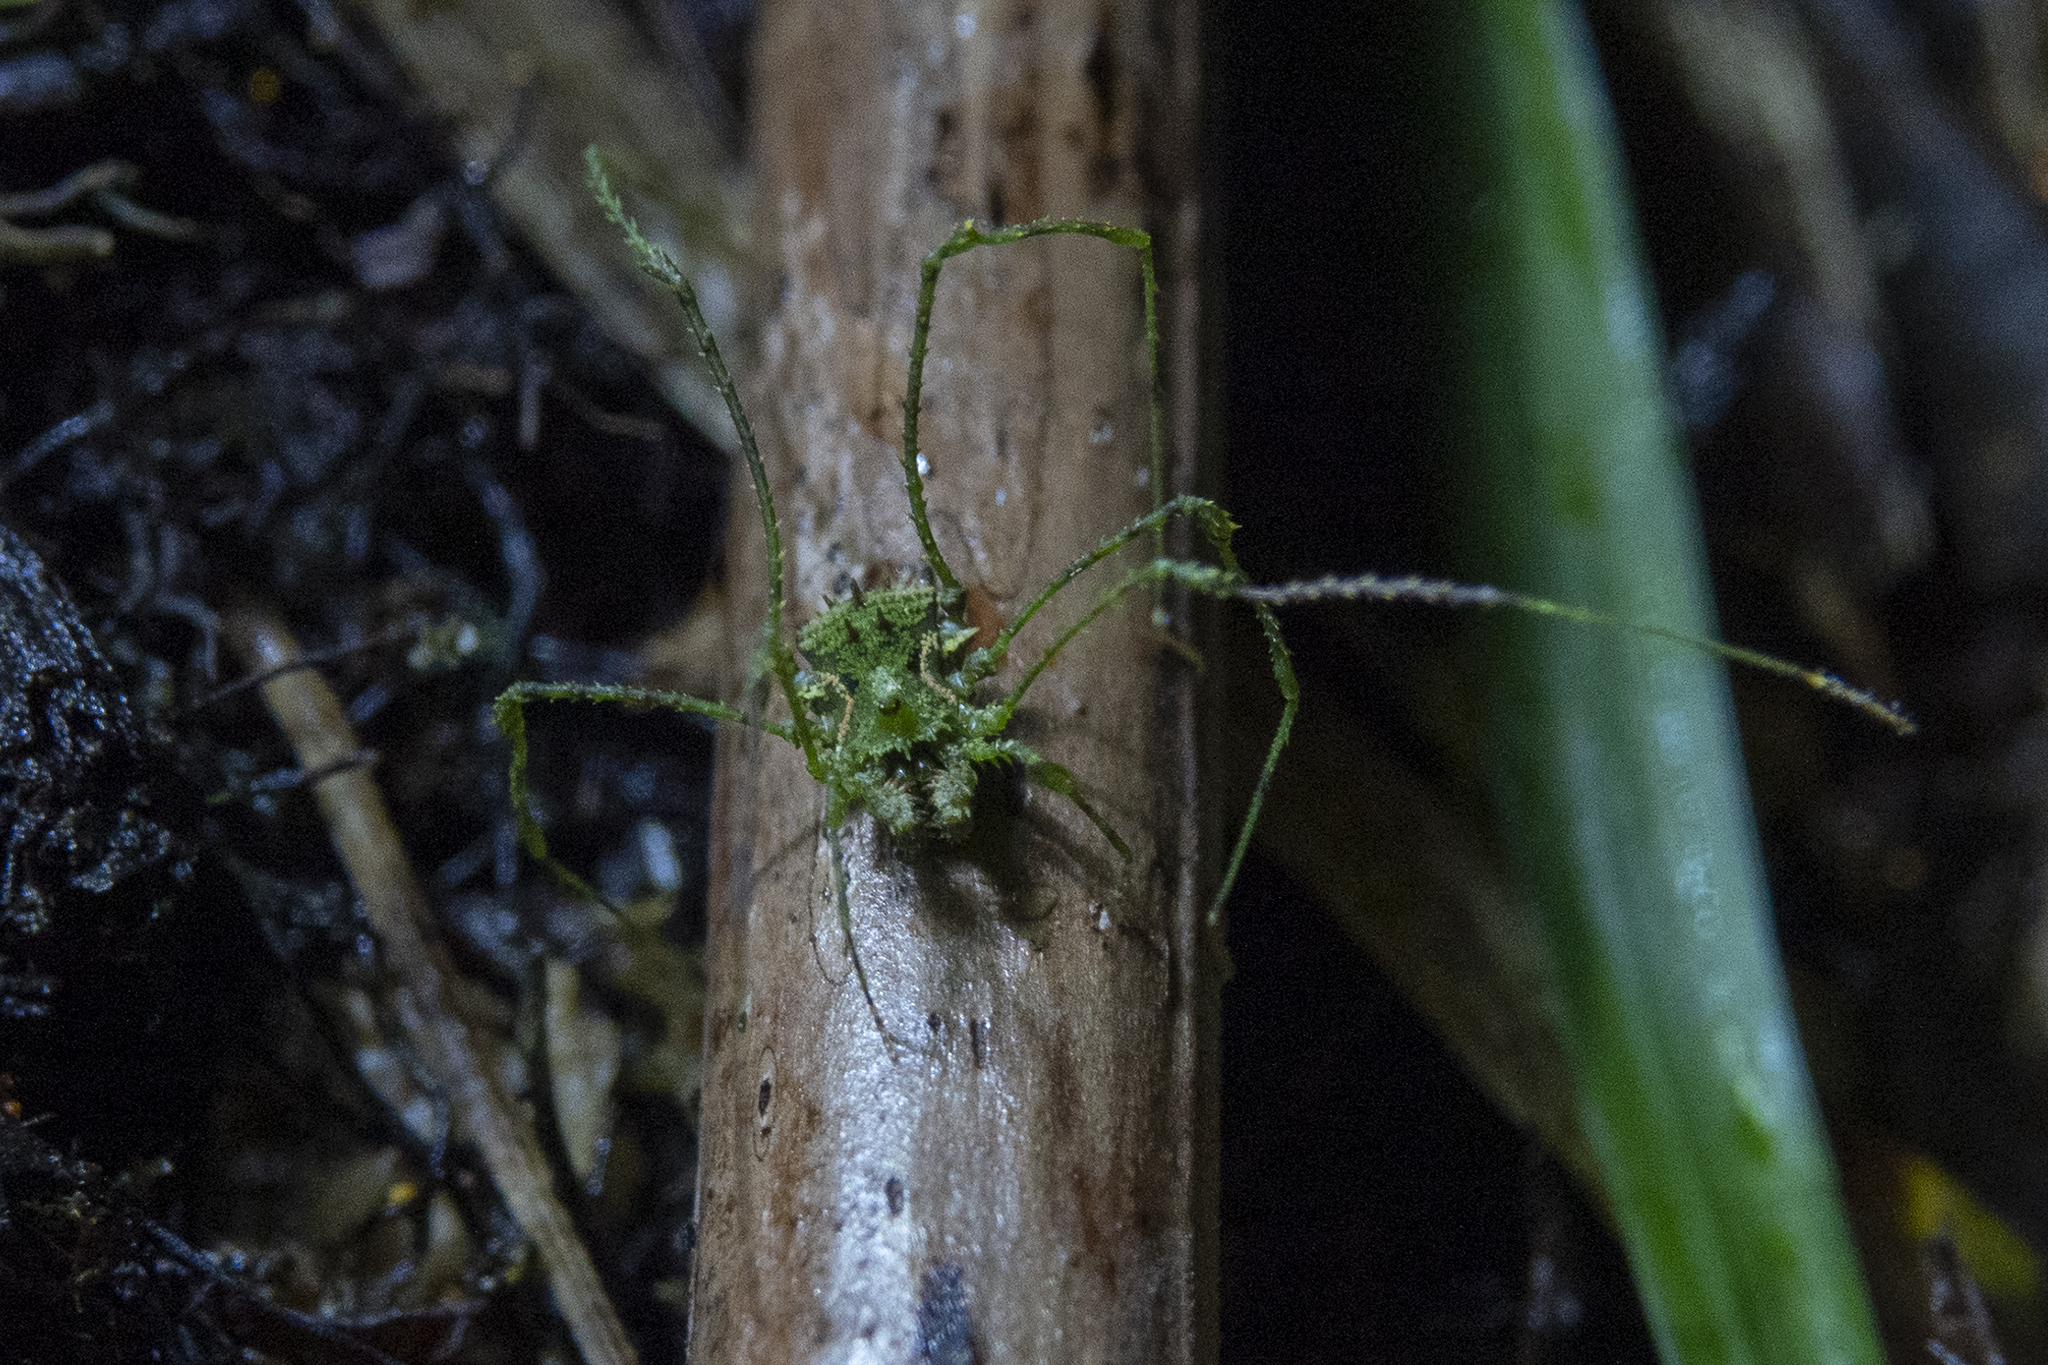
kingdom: Animalia
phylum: Arthropoda
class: Arachnida
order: Opiliones
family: Triaenonychidae
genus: Algidia
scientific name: Algidia viridata
